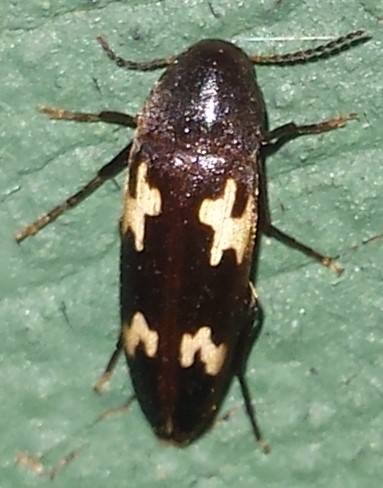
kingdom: Animalia
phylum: Arthropoda
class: Insecta
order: Coleoptera
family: Melandryidae
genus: Dircaea
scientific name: Dircaea liturata
